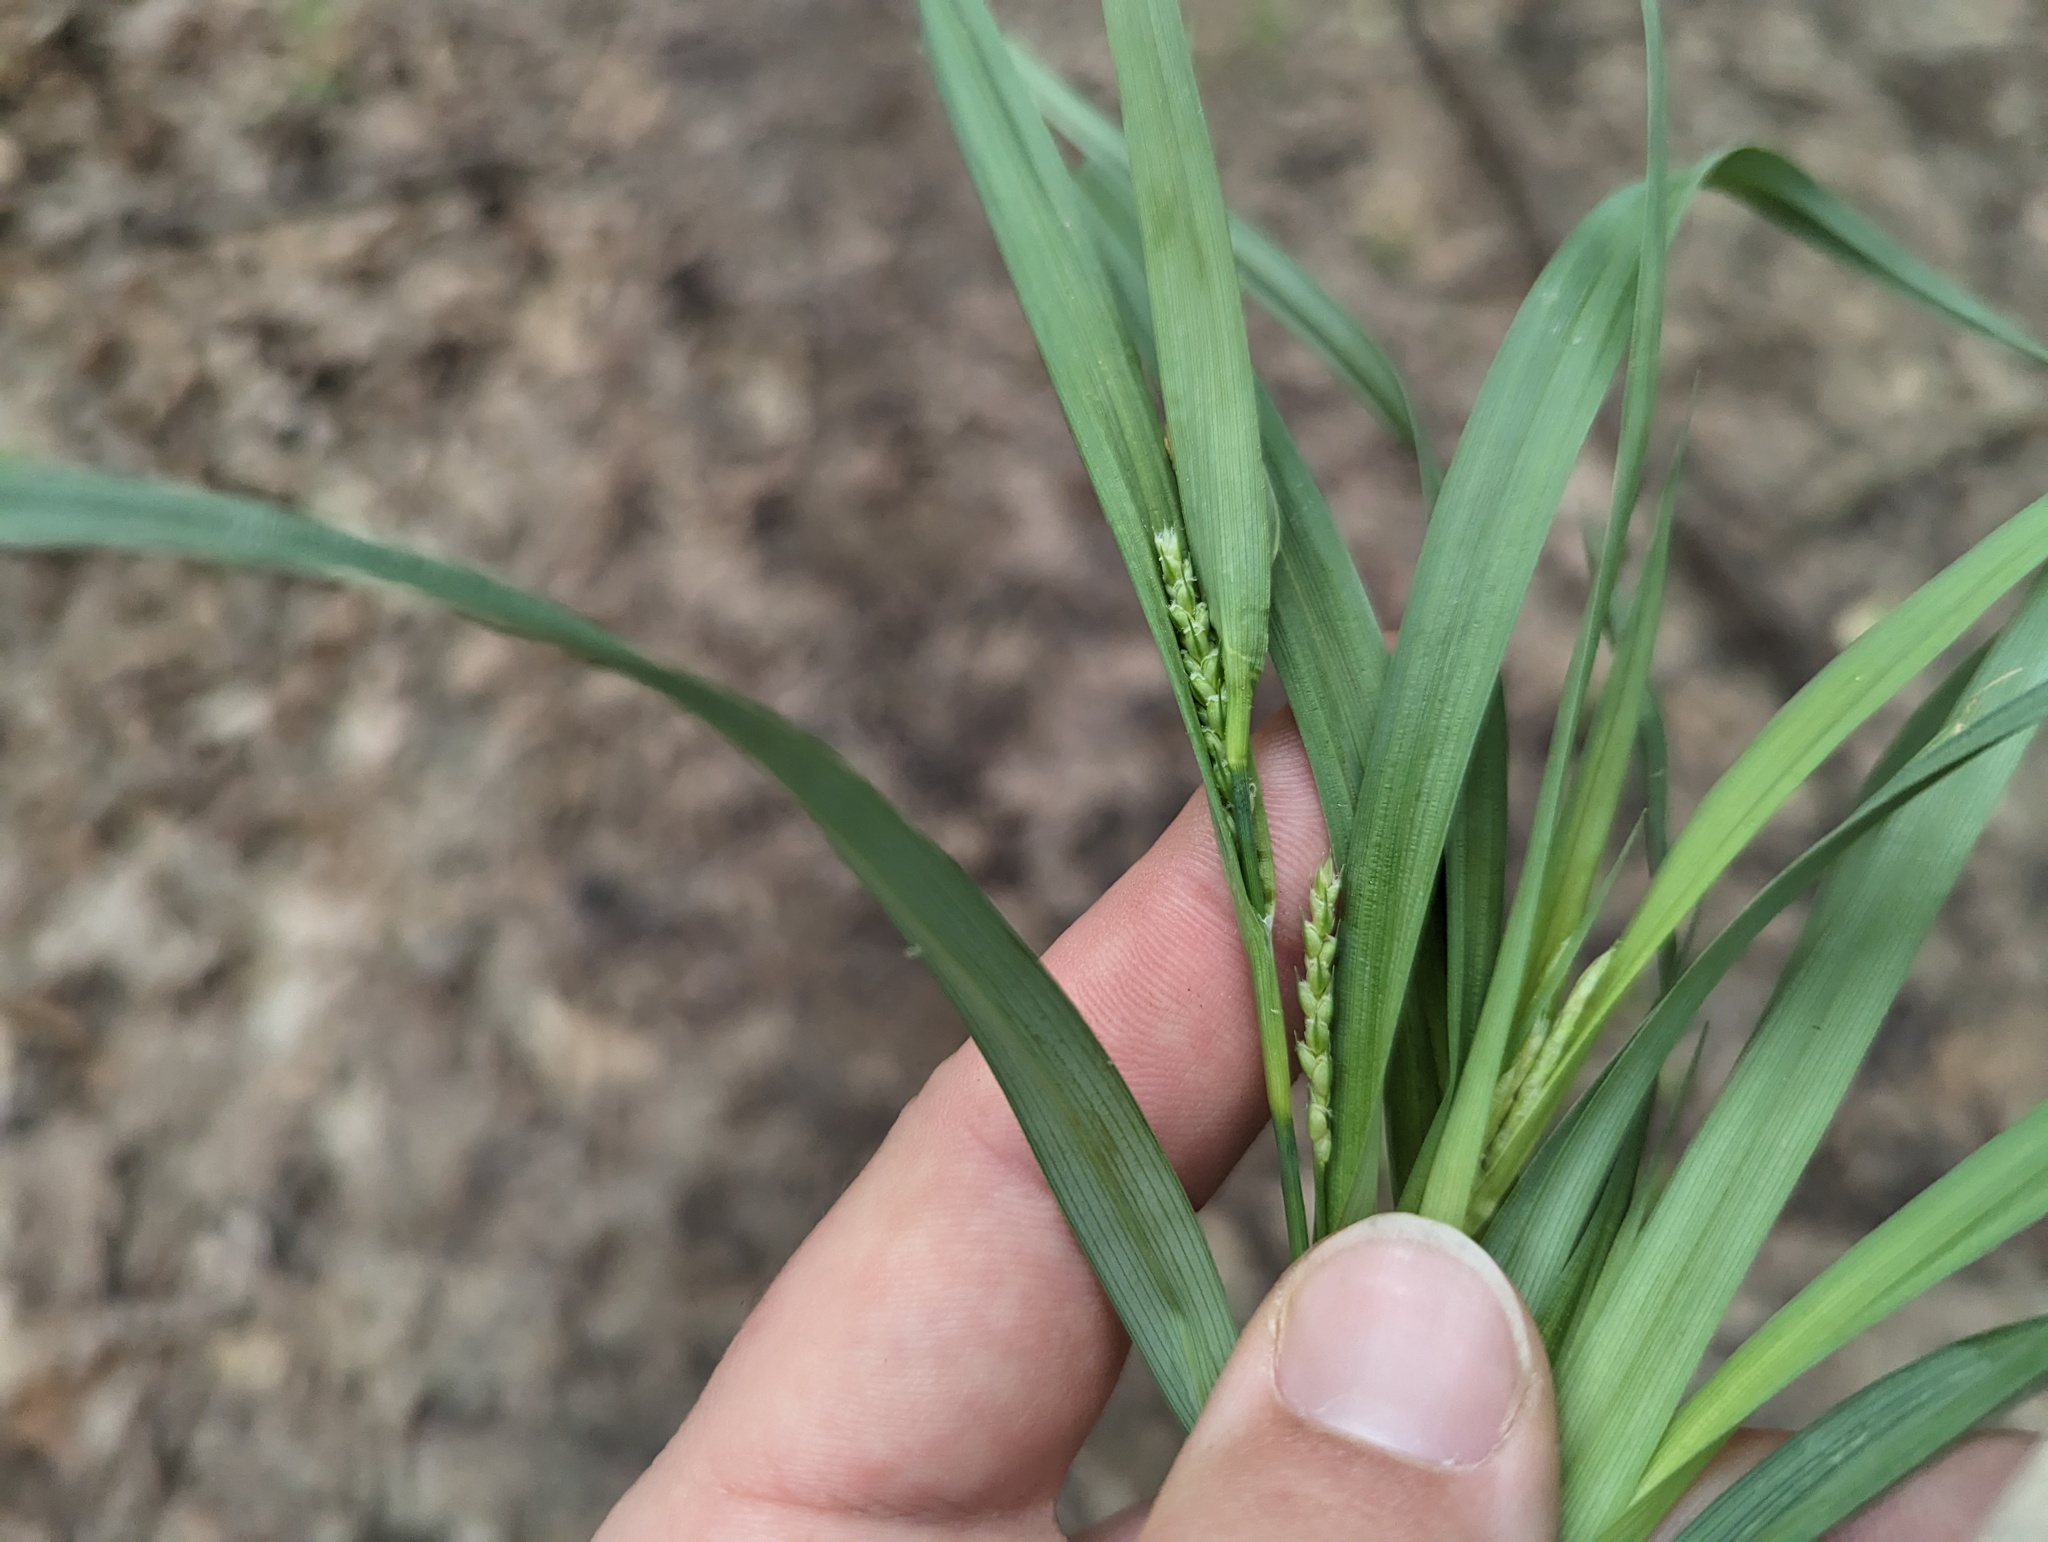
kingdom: Plantae
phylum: Tracheophyta
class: Liliopsida
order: Poales
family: Cyperaceae
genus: Carex
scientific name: Carex glaucodea
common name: Blue sedge
